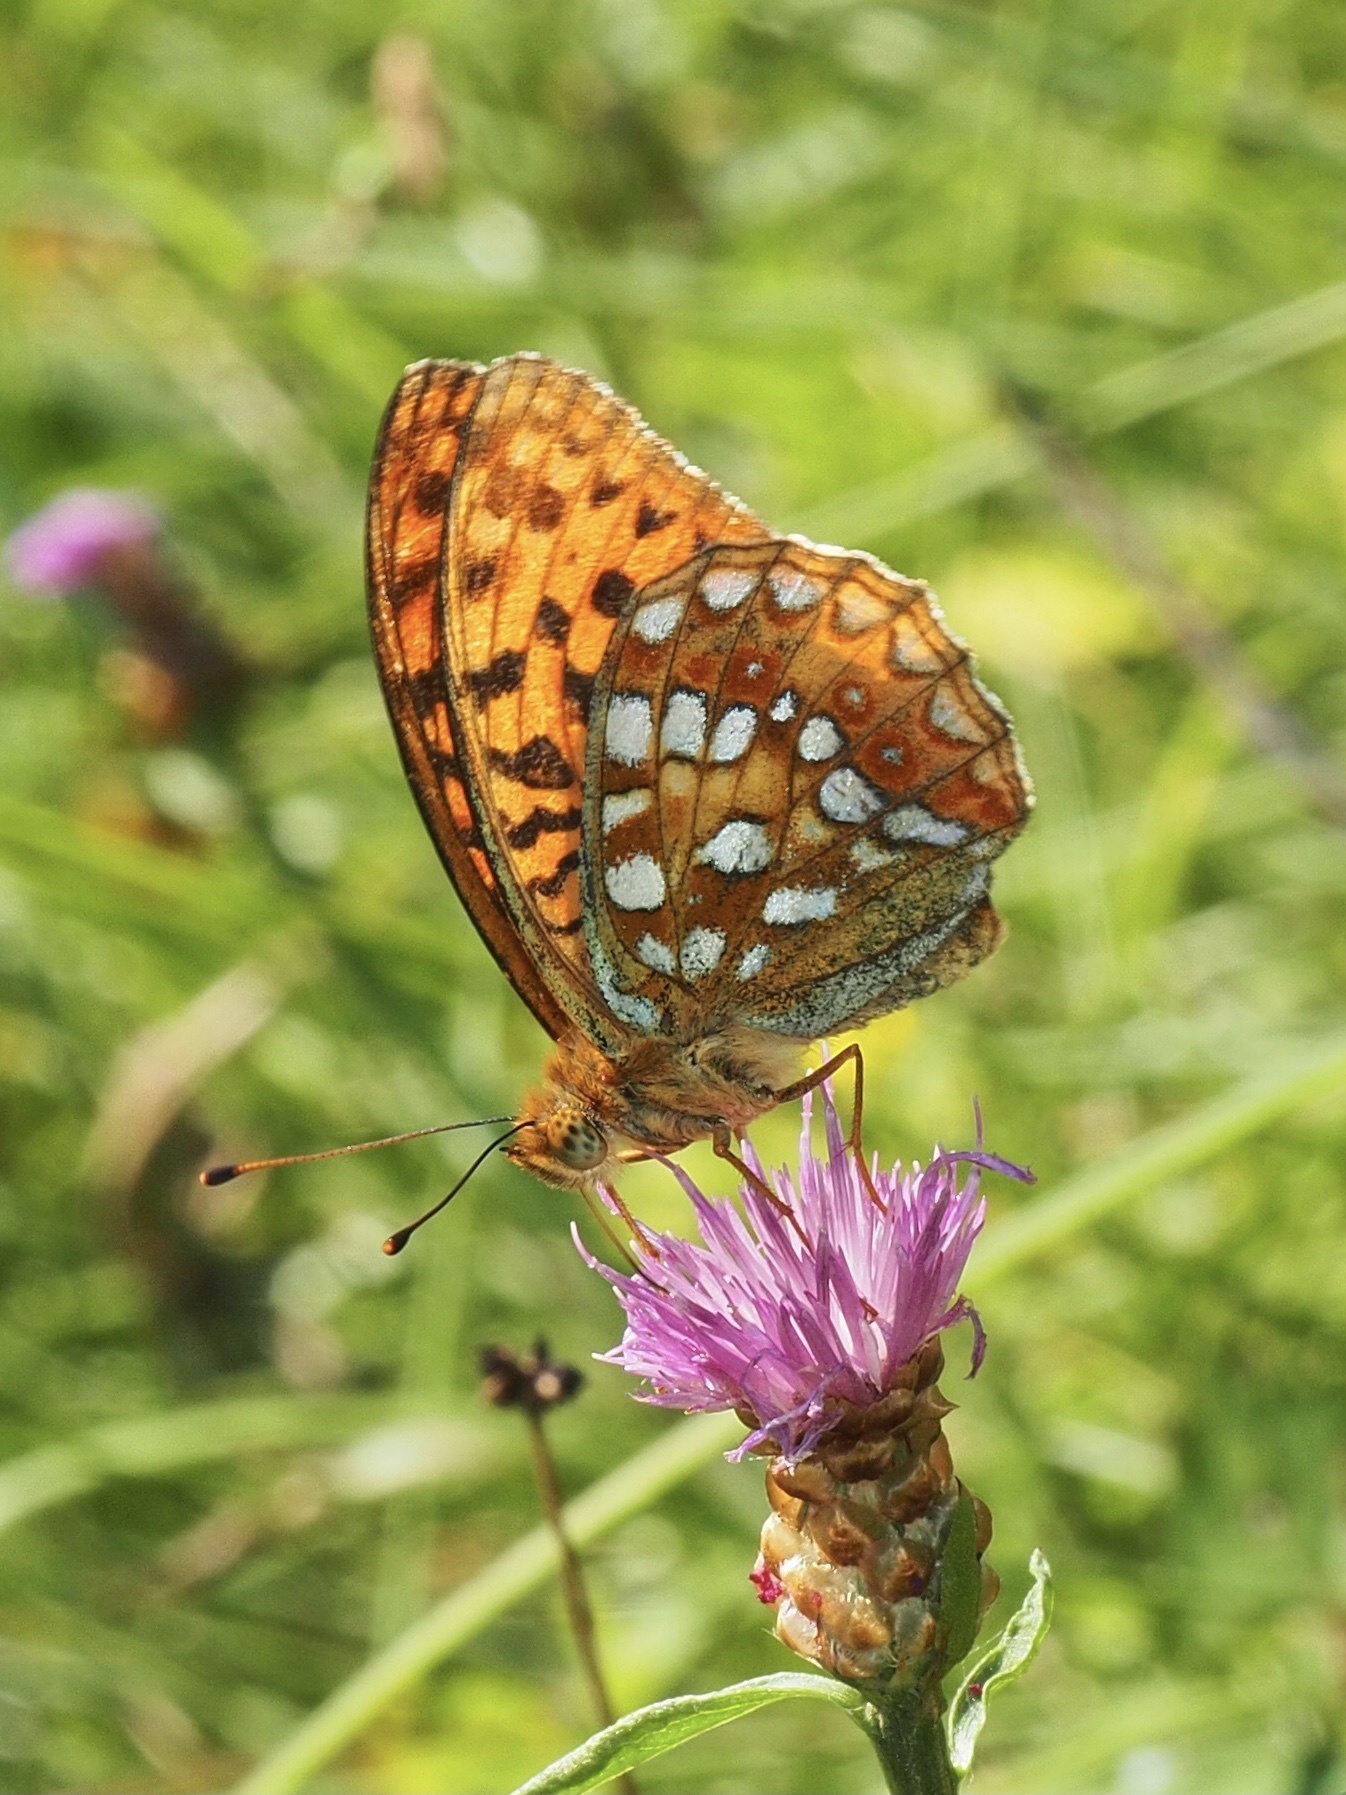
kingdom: Animalia
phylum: Arthropoda
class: Insecta
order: Lepidoptera
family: Nymphalidae
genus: Fabriciana
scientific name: Fabriciana adippe
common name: High brown fritillary
